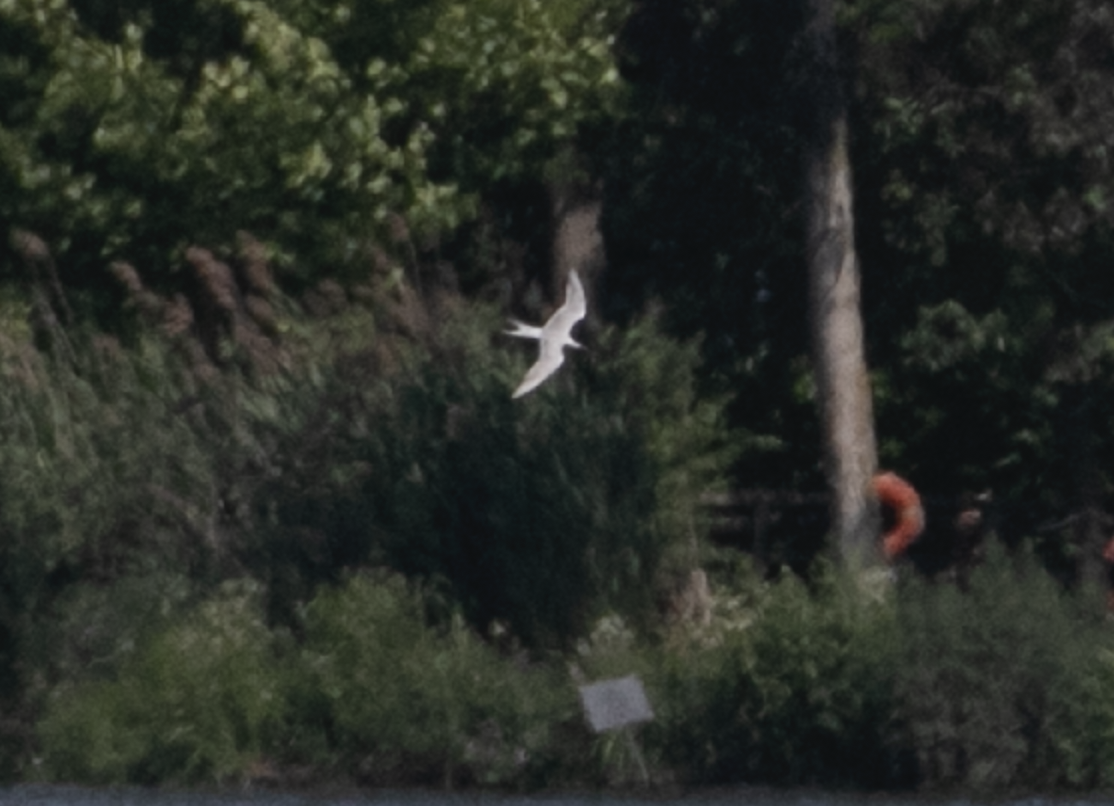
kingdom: Animalia
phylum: Chordata
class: Aves
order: Charadriiformes
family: Laridae
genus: Sterna
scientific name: Sterna hirundo
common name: Common tern
